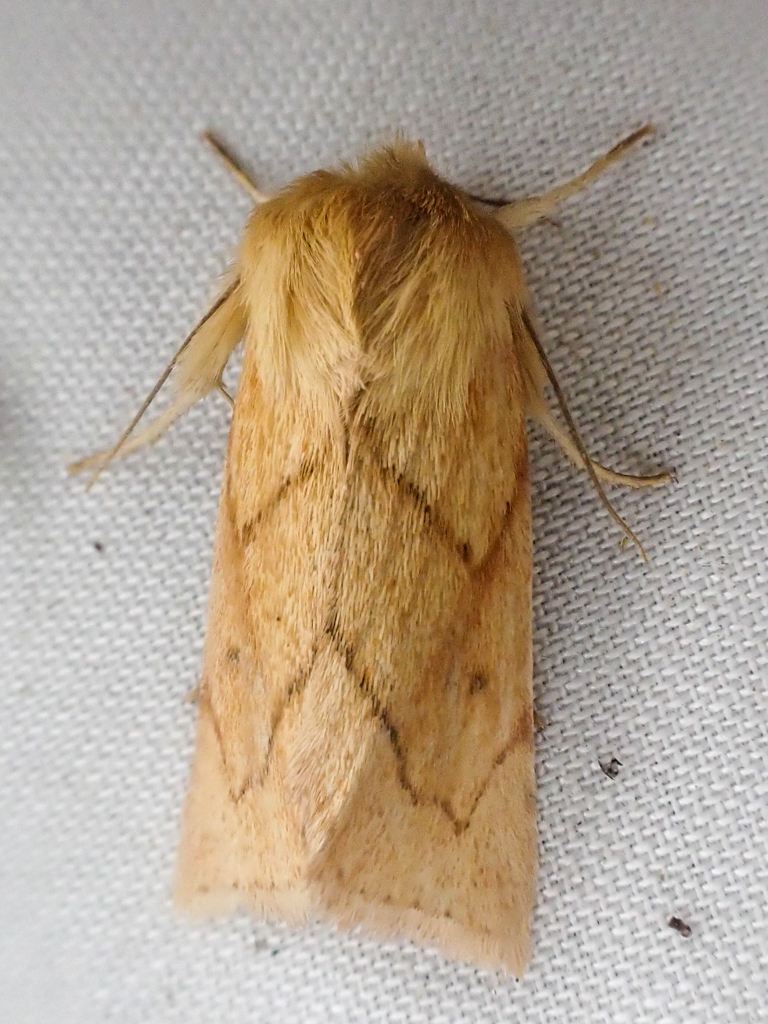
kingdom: Animalia
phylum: Arthropoda
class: Insecta
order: Lepidoptera
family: Noctuidae
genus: Zosteropoda
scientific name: Zosteropoda hirtipes
